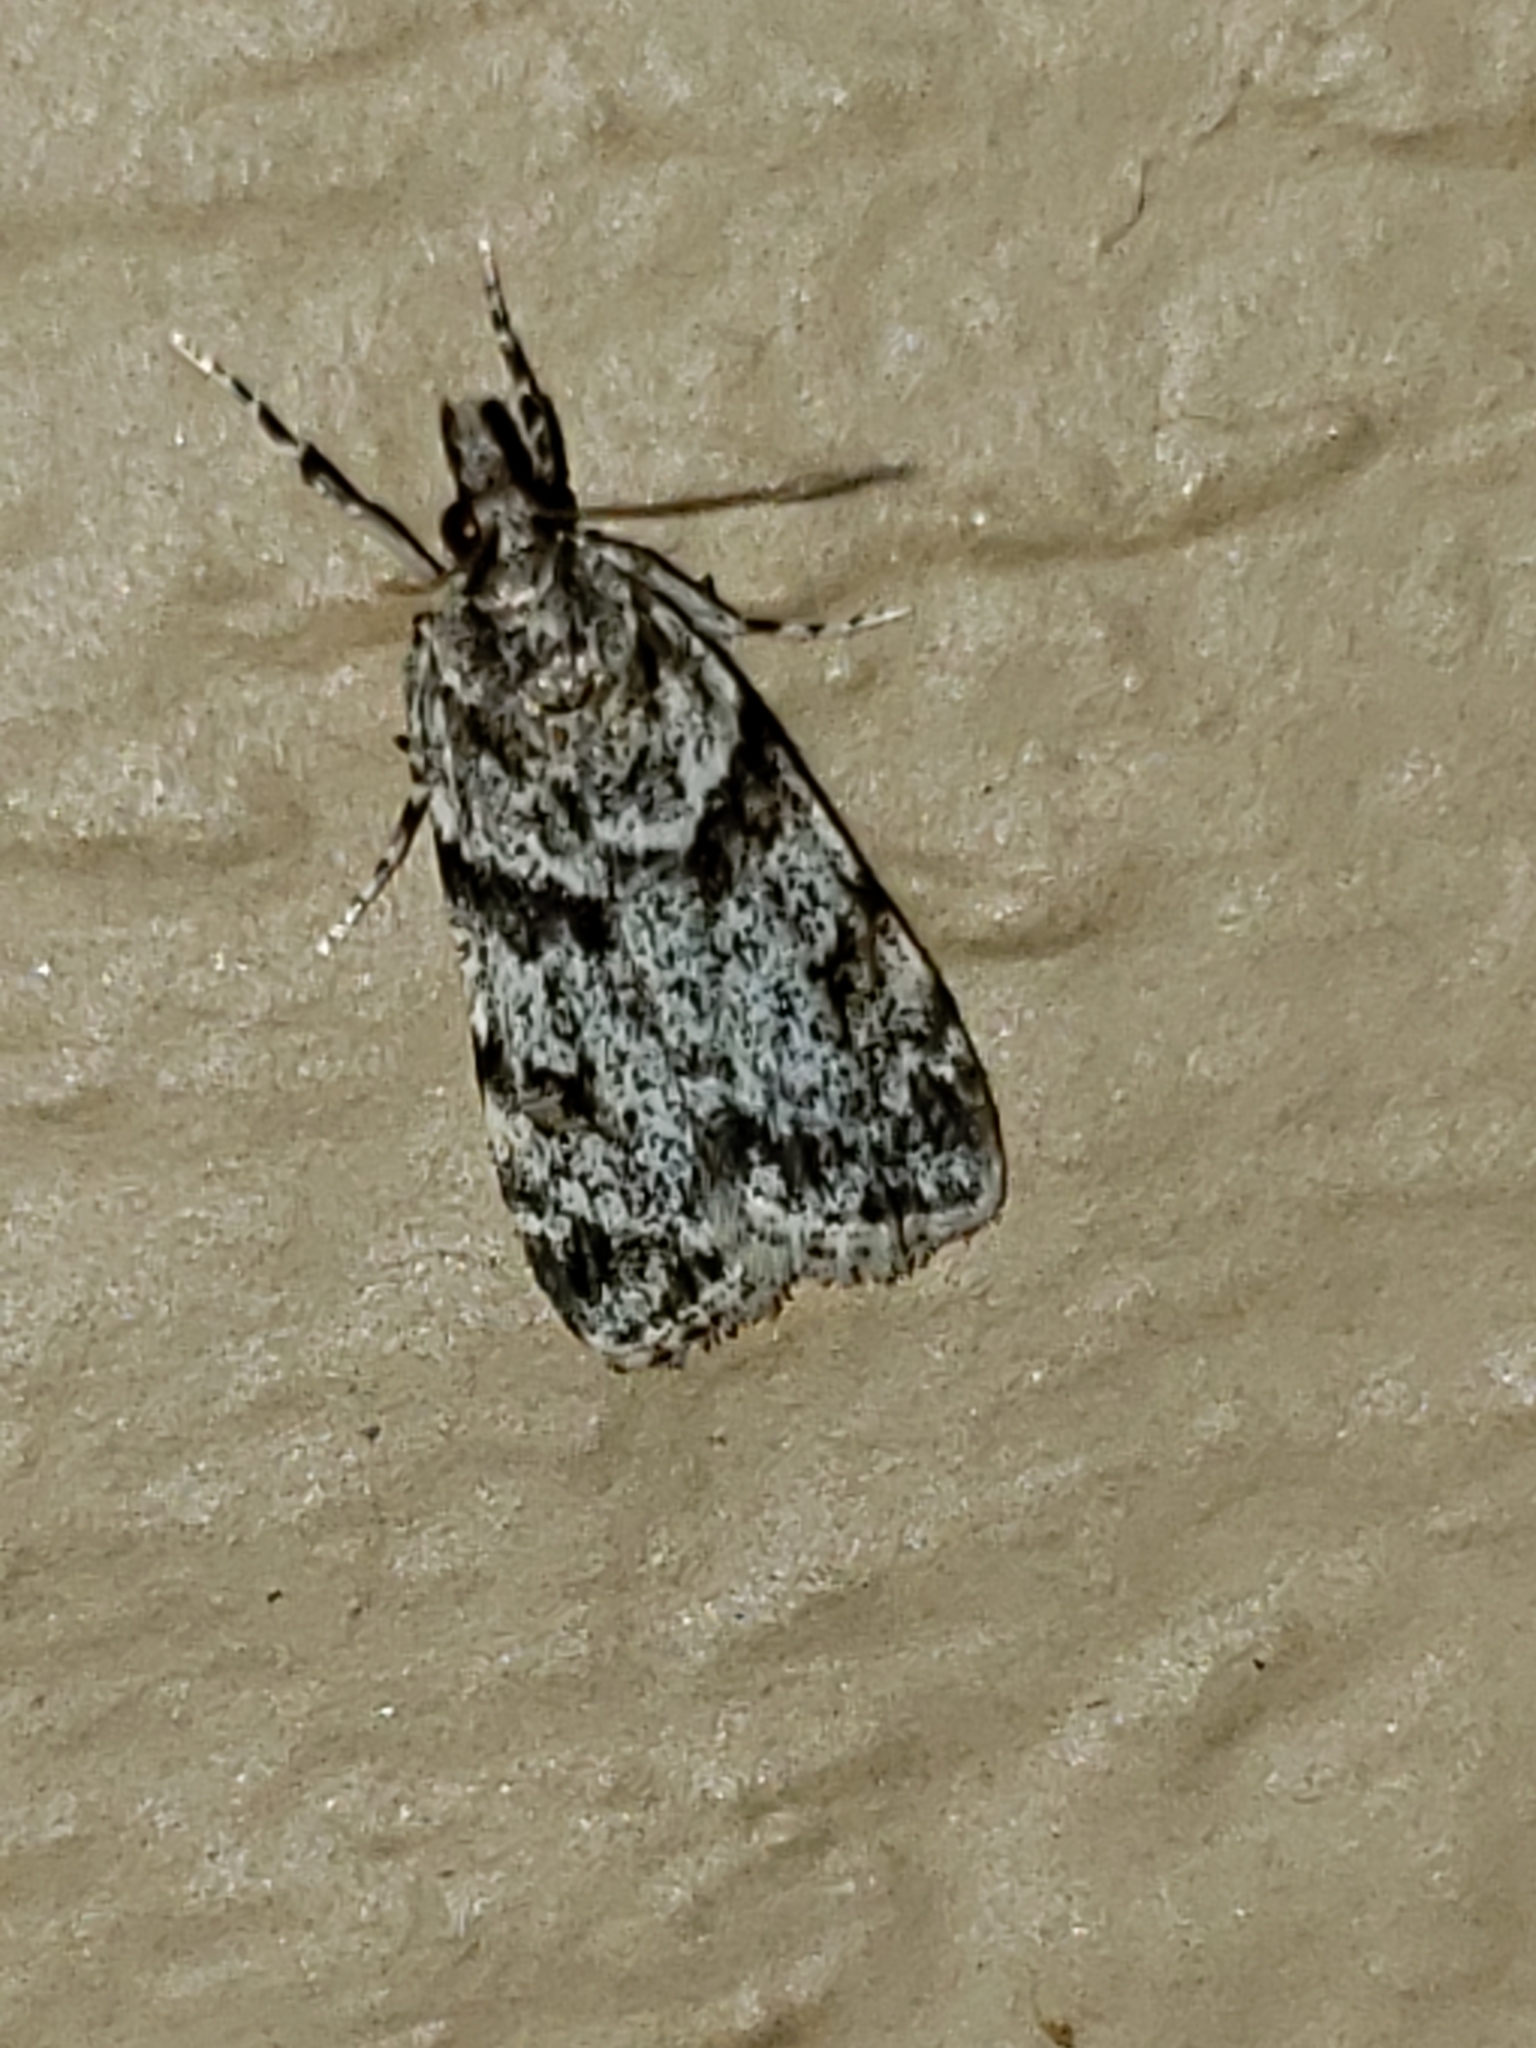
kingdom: Animalia
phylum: Arthropoda
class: Insecta
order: Lepidoptera
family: Crambidae
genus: Scoparia
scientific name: Scoparia biplagialis
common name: Double-striped scoparia moth
